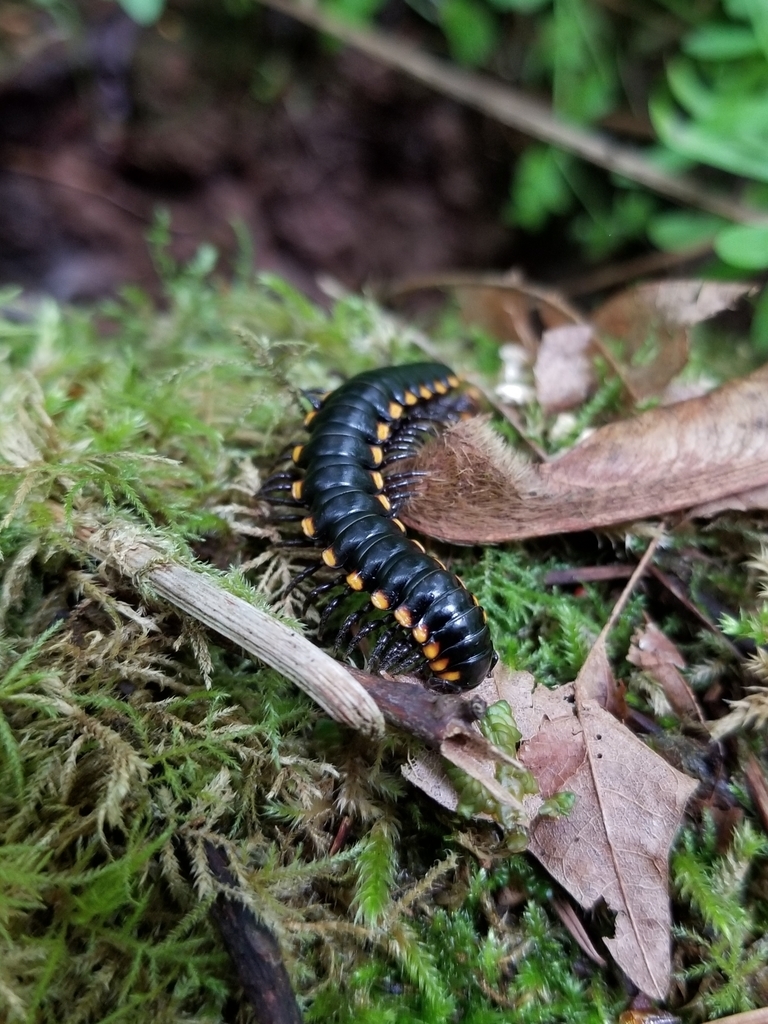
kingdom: Animalia
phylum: Arthropoda
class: Diplopoda
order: Polydesmida
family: Xystodesmidae
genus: Harpaphe
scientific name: Harpaphe haydeniana
